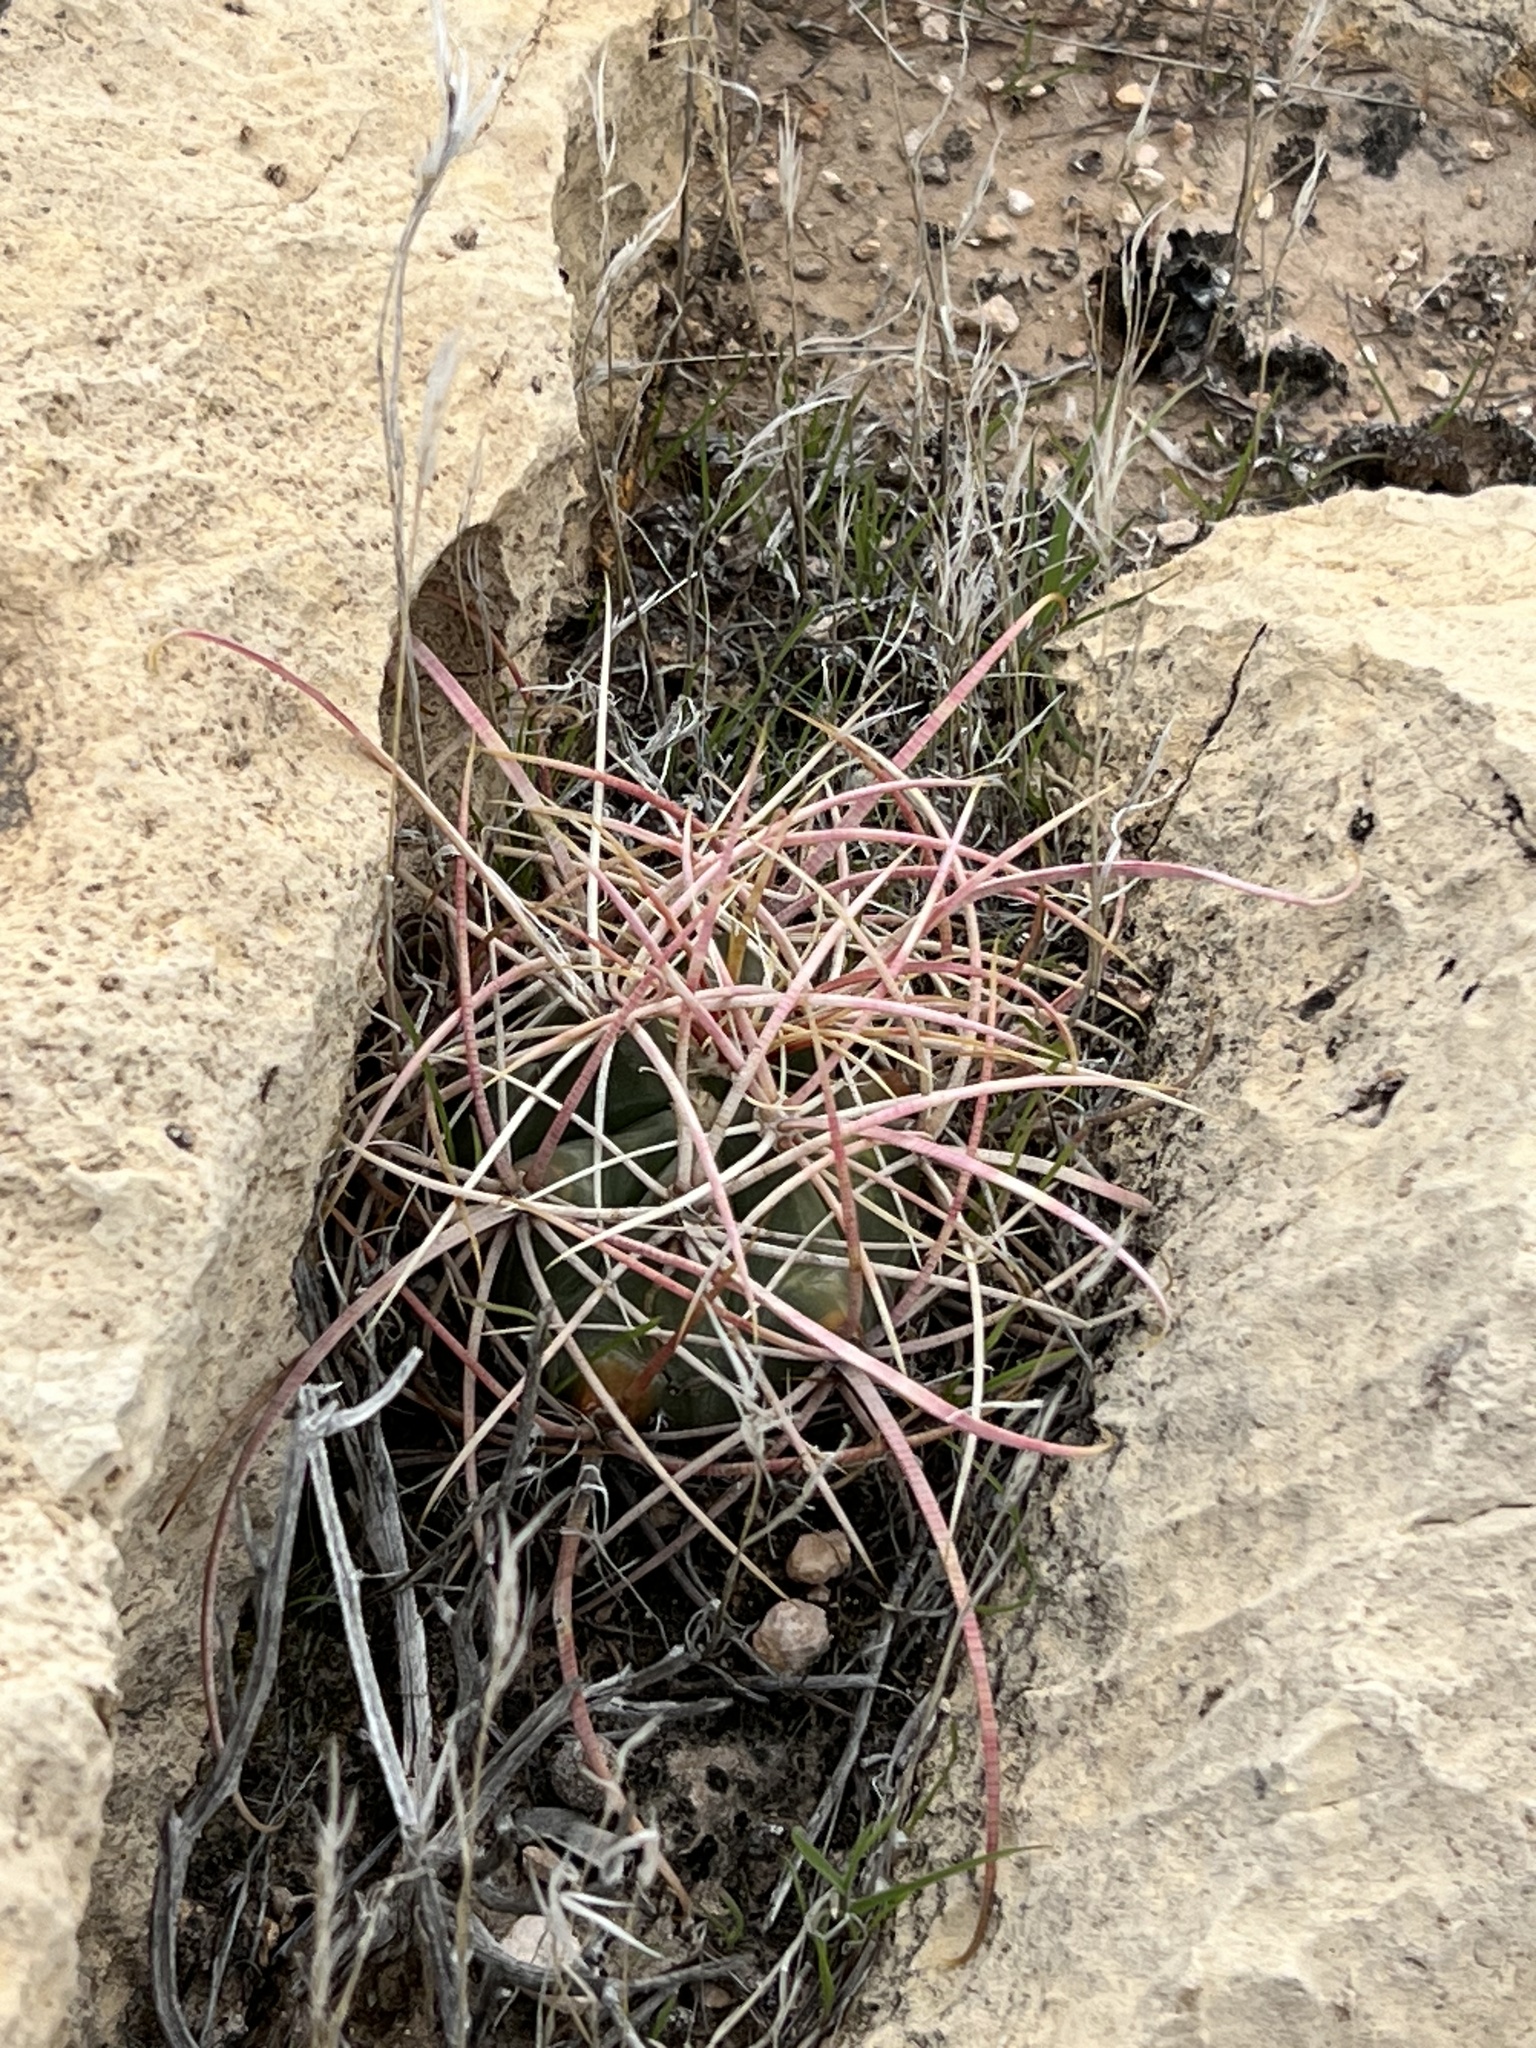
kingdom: Plantae
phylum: Tracheophyta
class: Magnoliopsida
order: Caryophyllales
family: Cactaceae
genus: Ferocactus
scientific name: Ferocactus cylindraceus
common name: California barrel cactus
